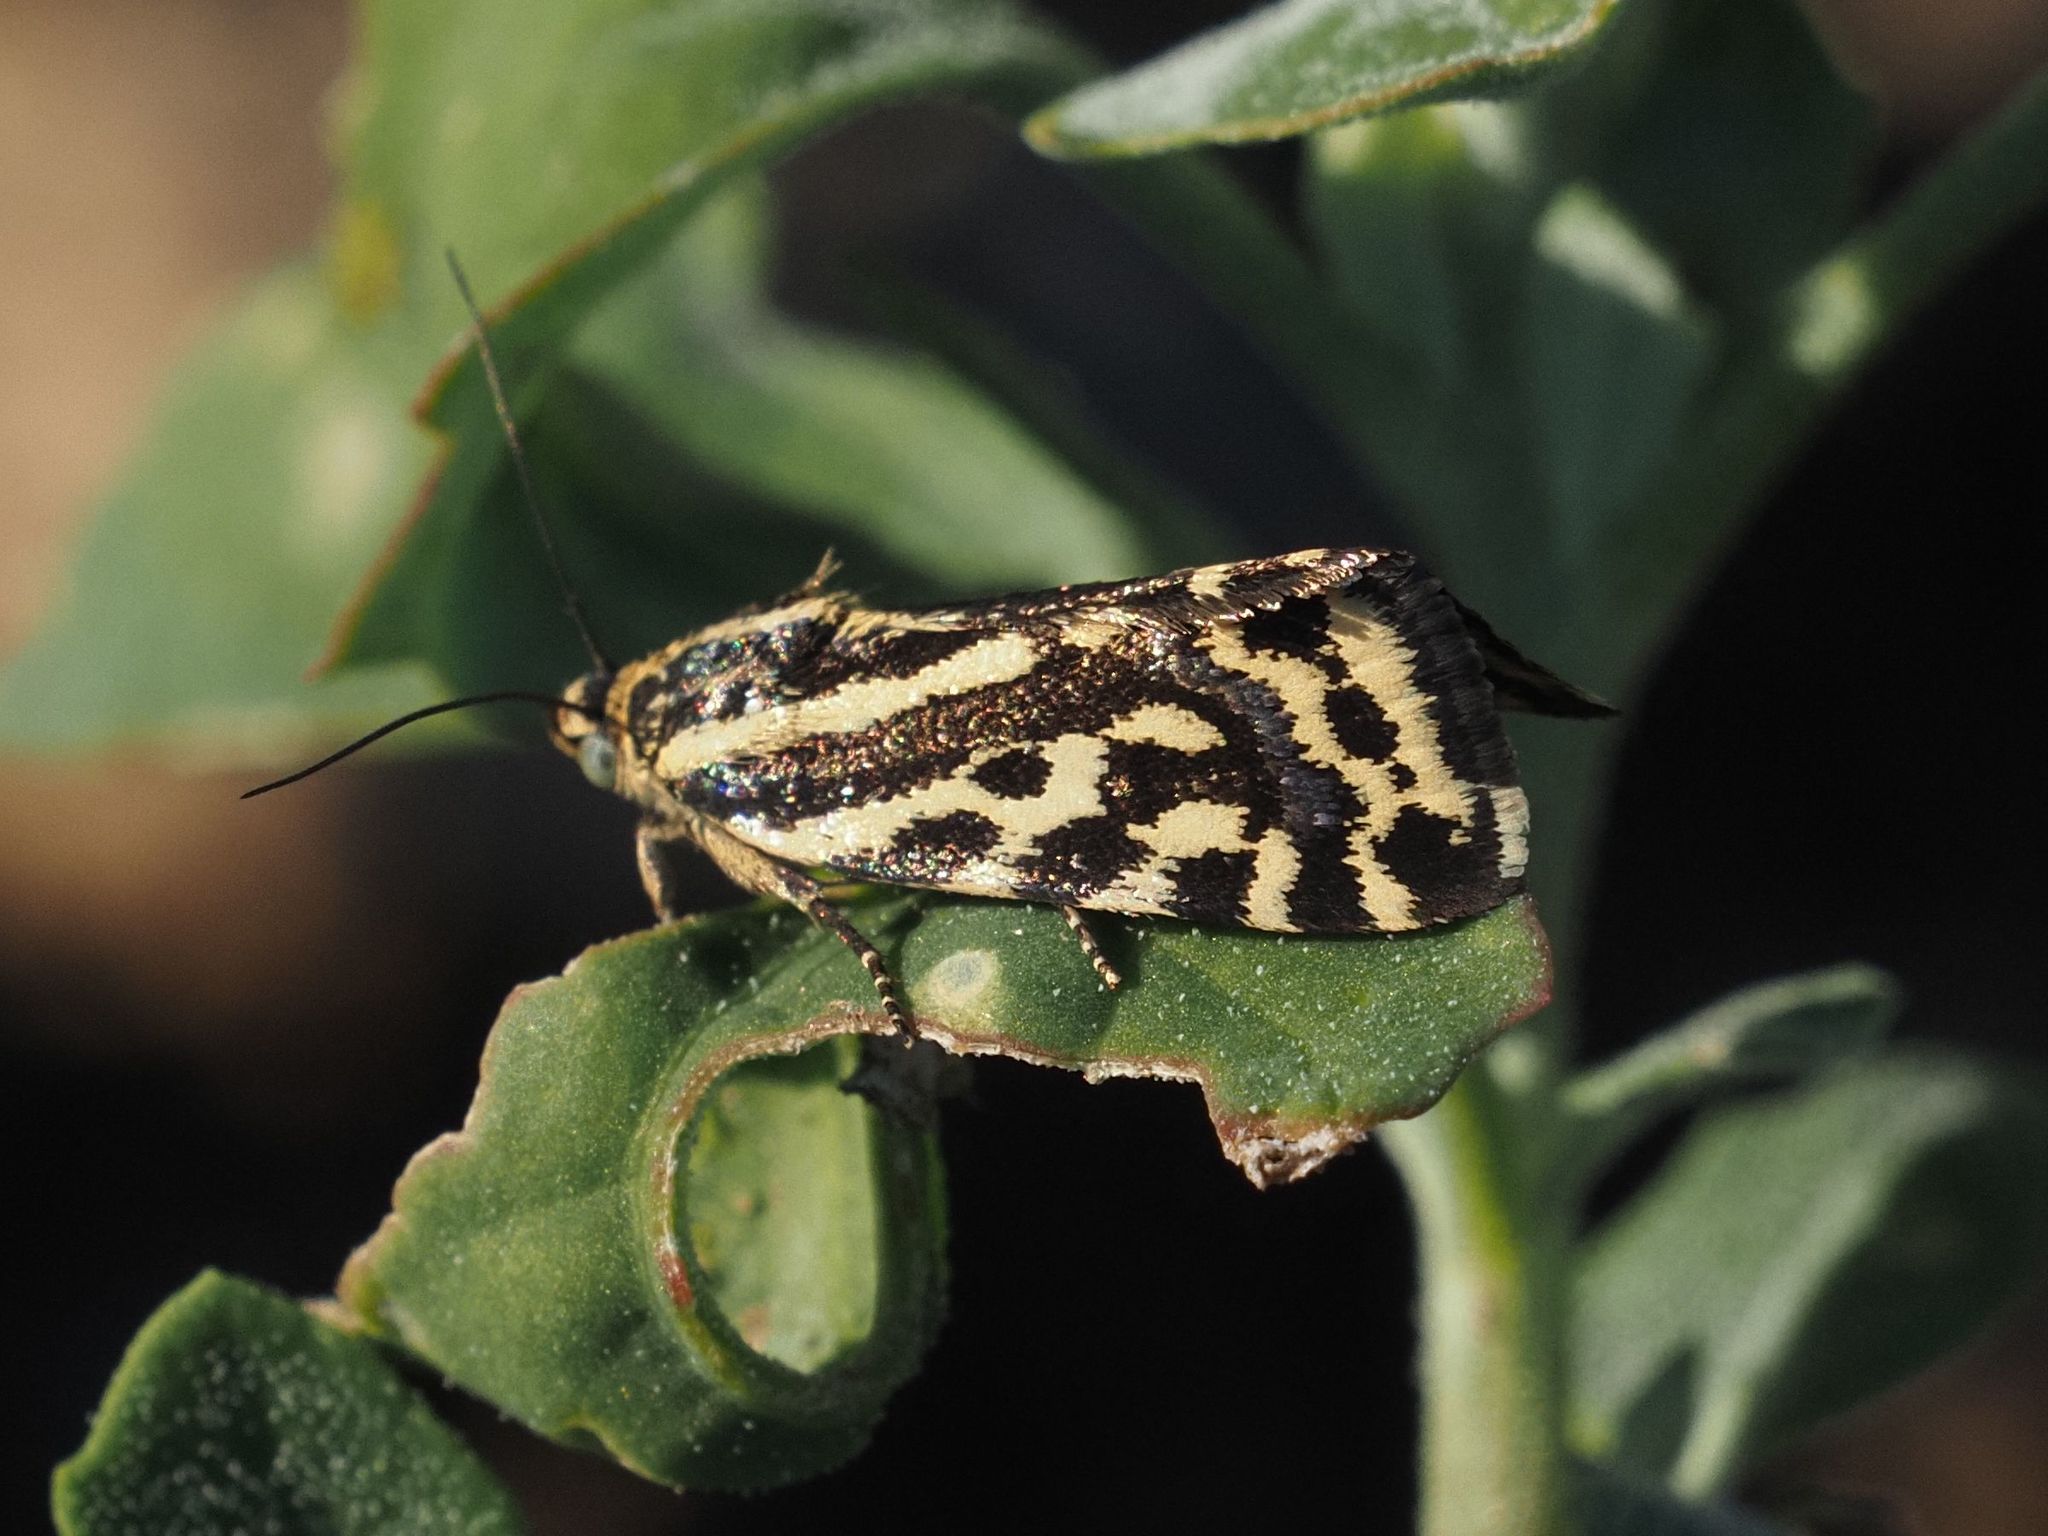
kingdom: Animalia
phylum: Arthropoda
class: Insecta
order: Lepidoptera
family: Noctuidae
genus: Acontia
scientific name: Acontia trabealis
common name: Spotted sulphur
